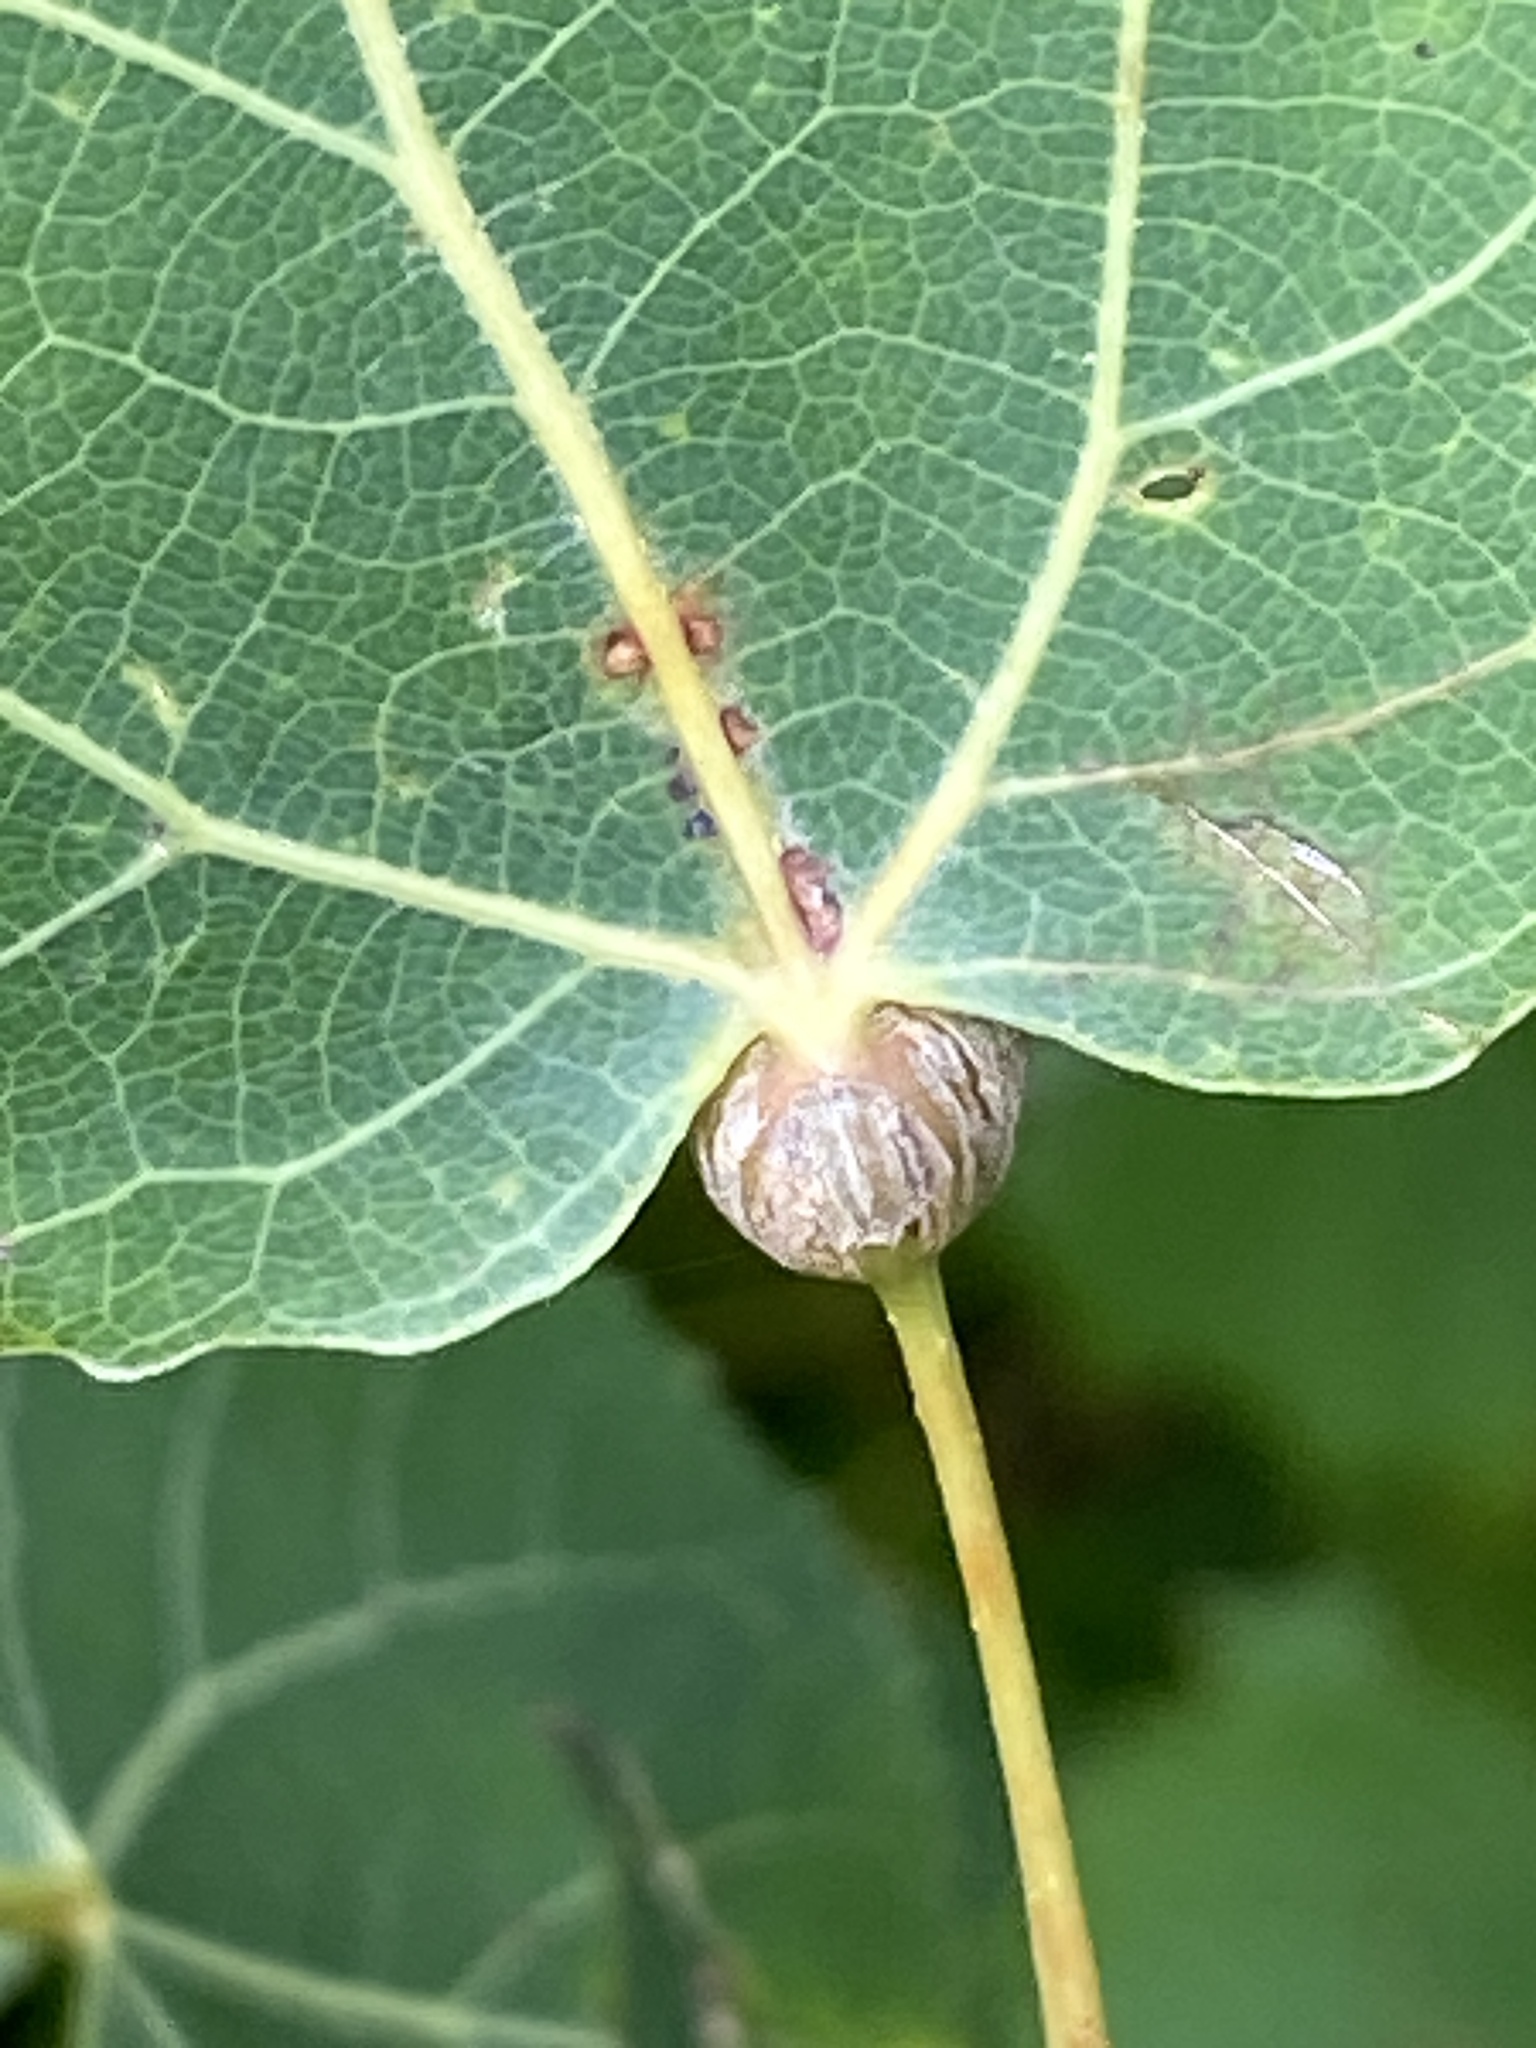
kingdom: Animalia
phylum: Arthropoda
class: Insecta
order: Lepidoptera
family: Nepticulidae
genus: Ectoedemia
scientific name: Ectoedemia populella
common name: Aspen petiole gall moth
